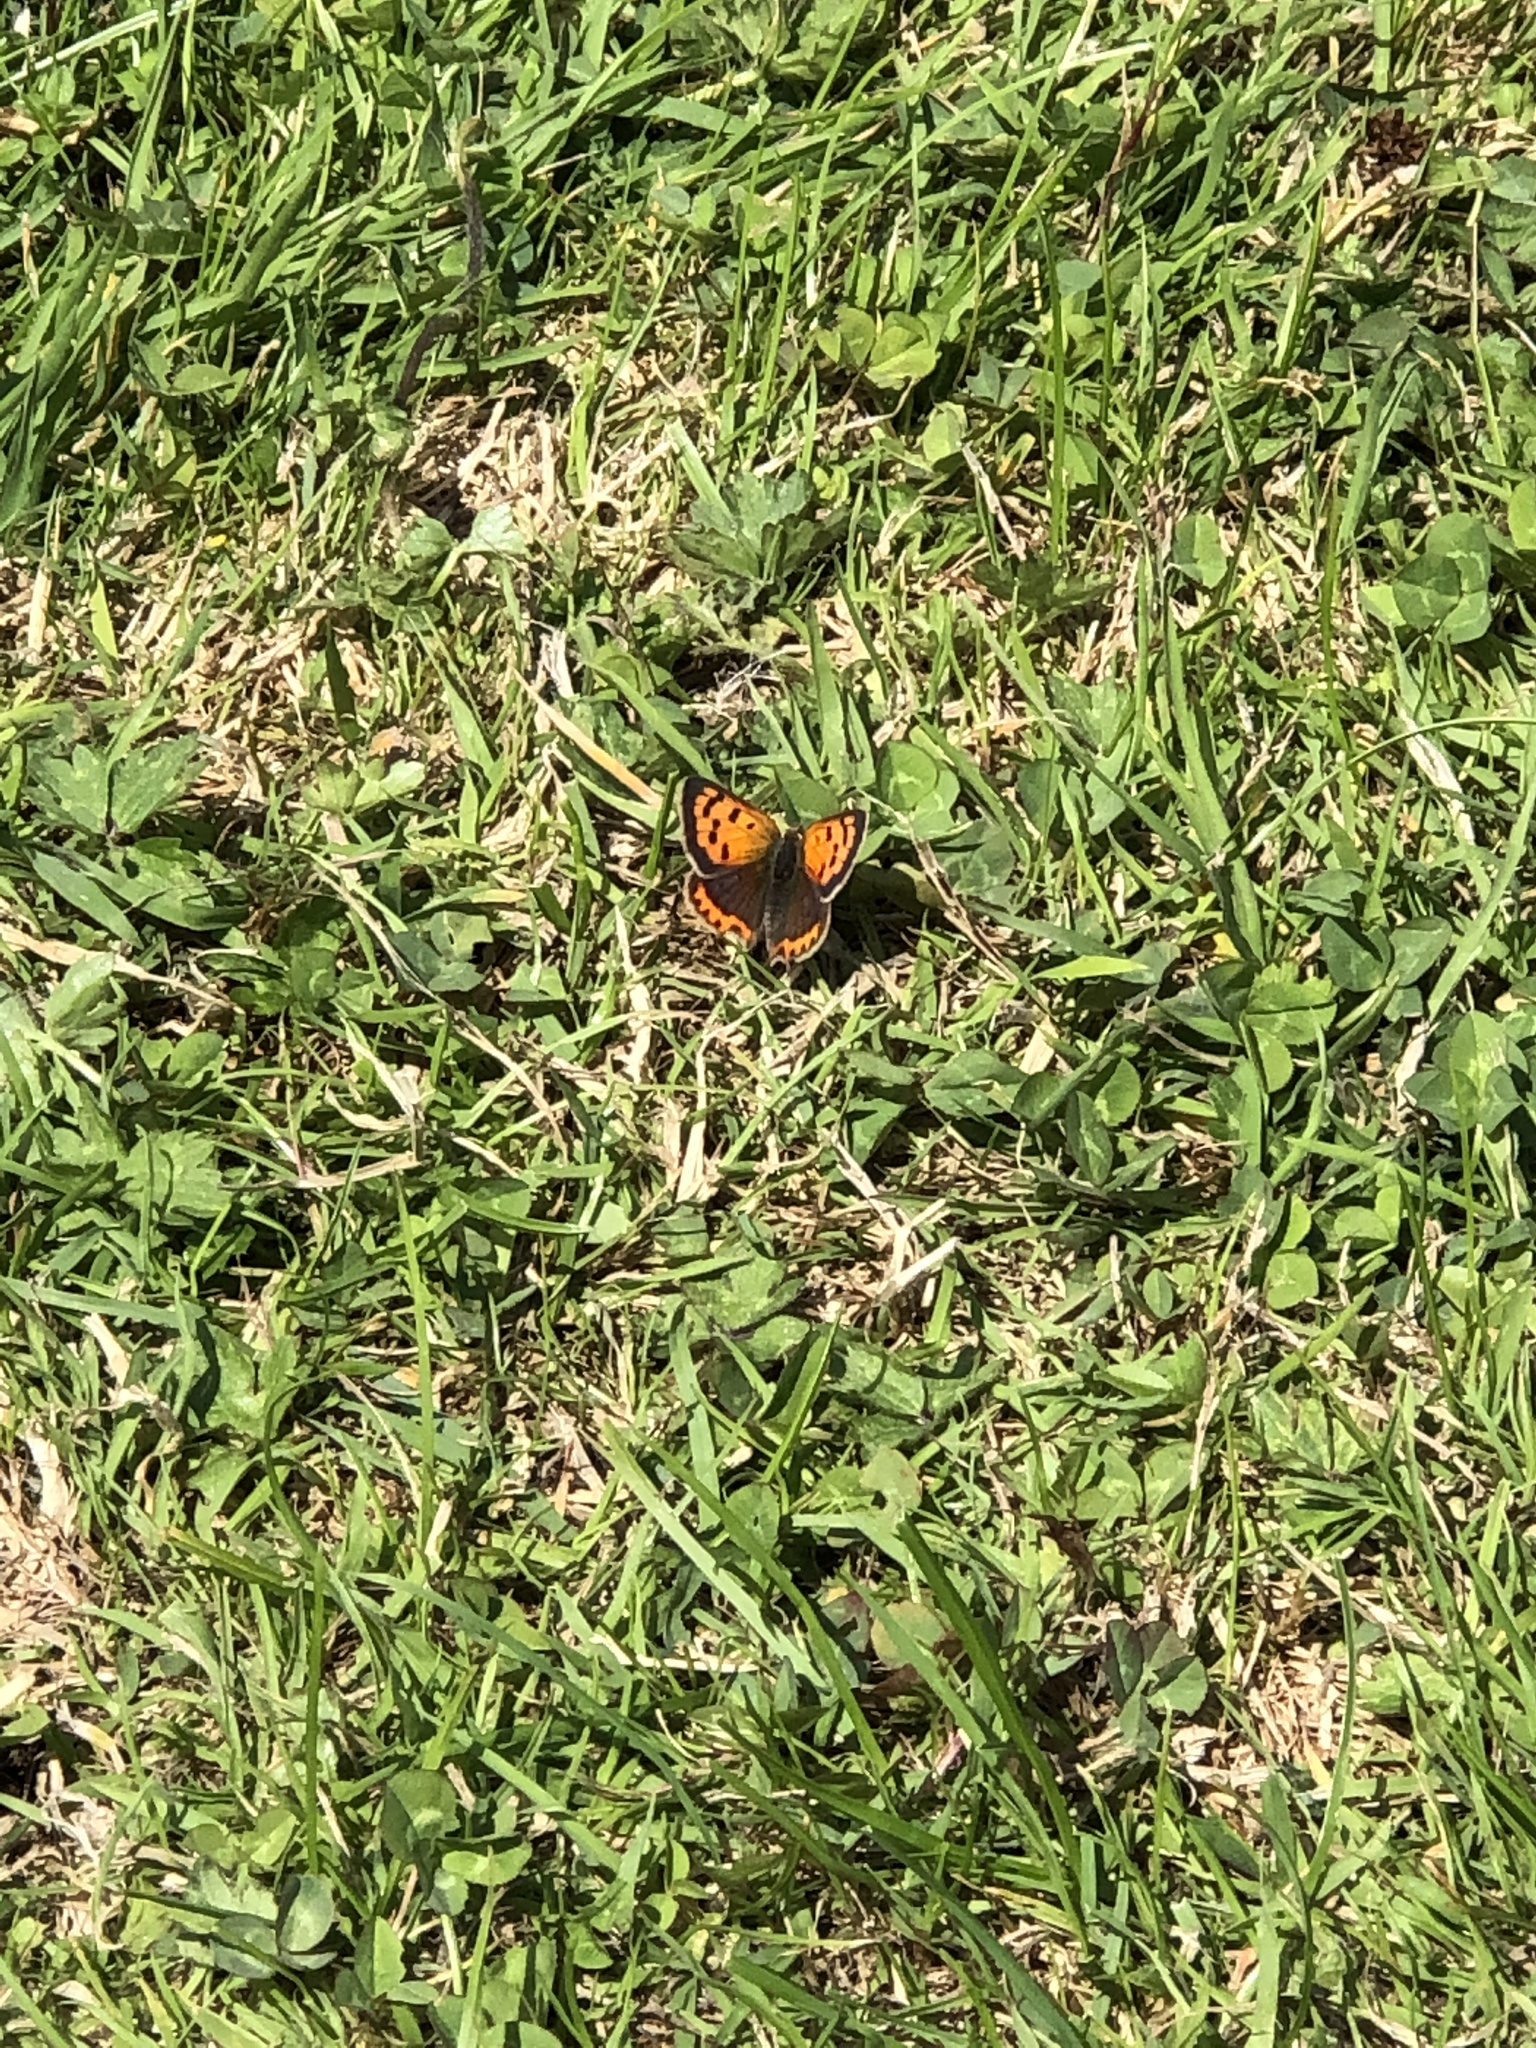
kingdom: Animalia
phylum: Arthropoda
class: Insecta
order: Lepidoptera
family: Lycaenidae
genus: Lycaena
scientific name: Lycaena phlaeas
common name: Small copper
